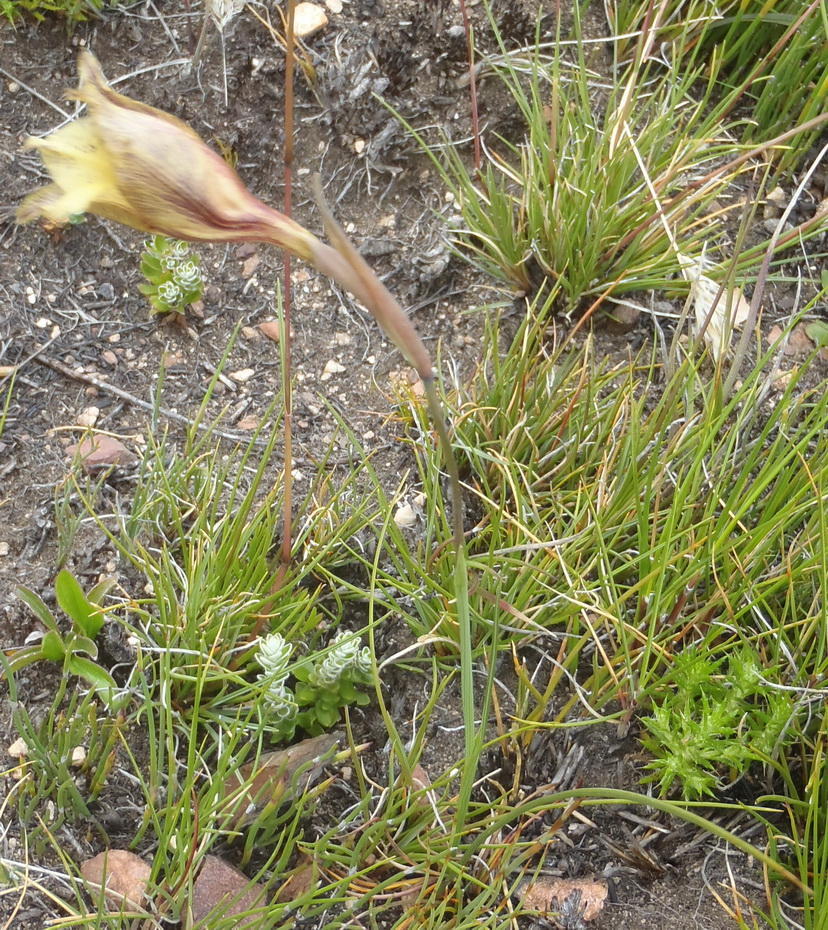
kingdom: Plantae
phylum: Tracheophyta
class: Liliopsida
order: Asparagales
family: Iridaceae
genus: Gladiolus
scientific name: Gladiolus maculatus
